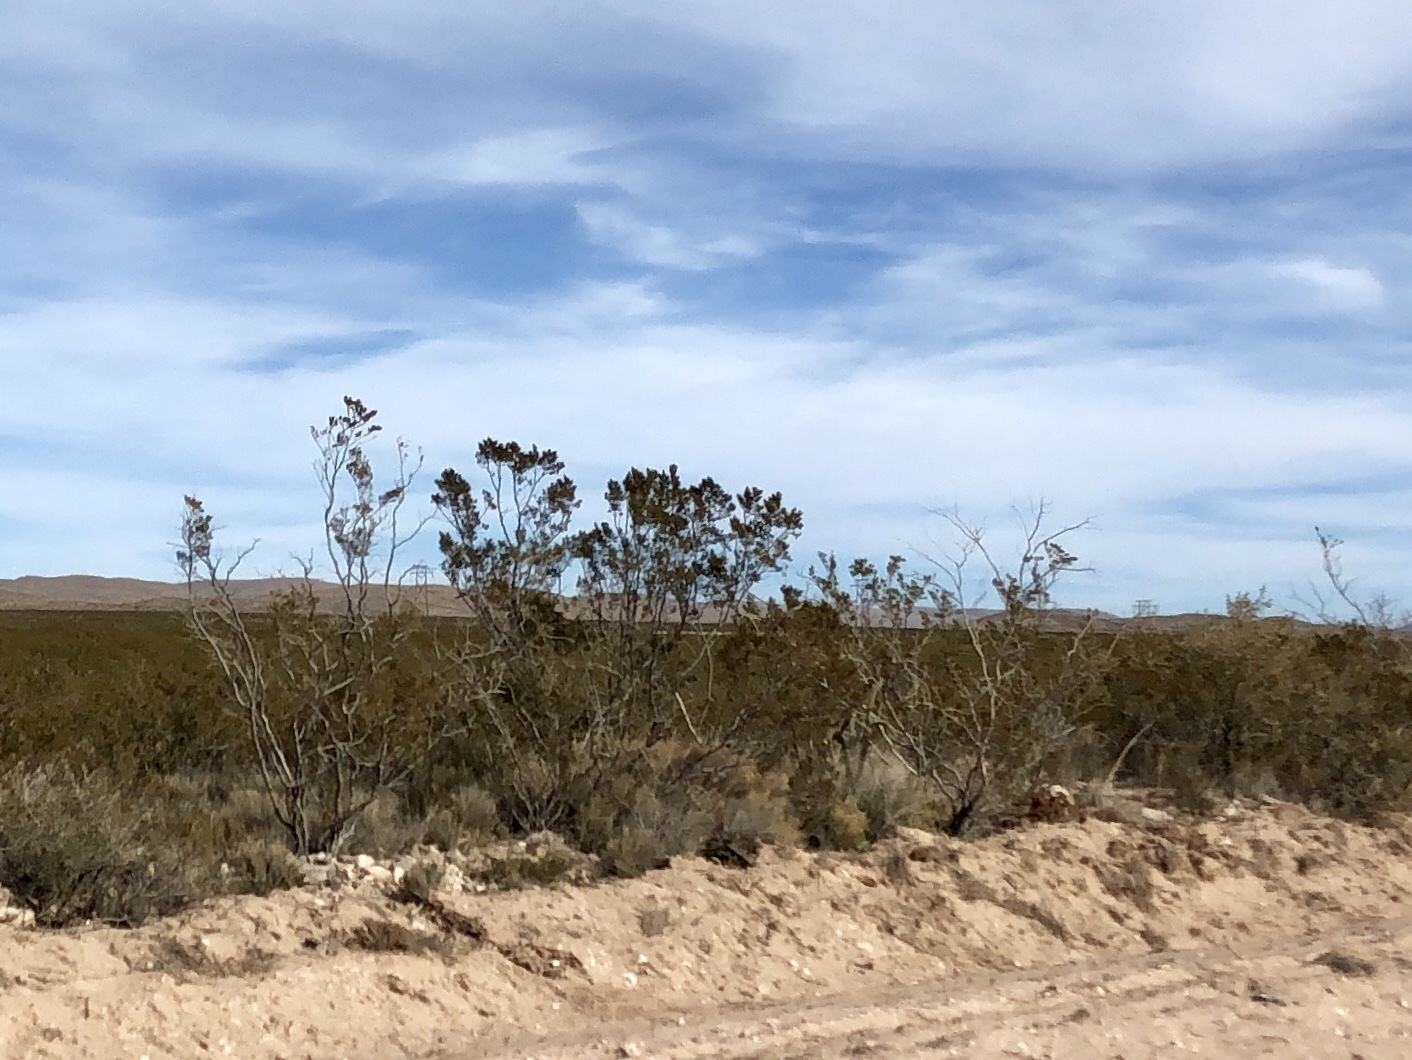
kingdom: Plantae
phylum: Tracheophyta
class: Magnoliopsida
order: Zygophyllales
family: Zygophyllaceae
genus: Larrea
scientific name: Larrea tridentata
